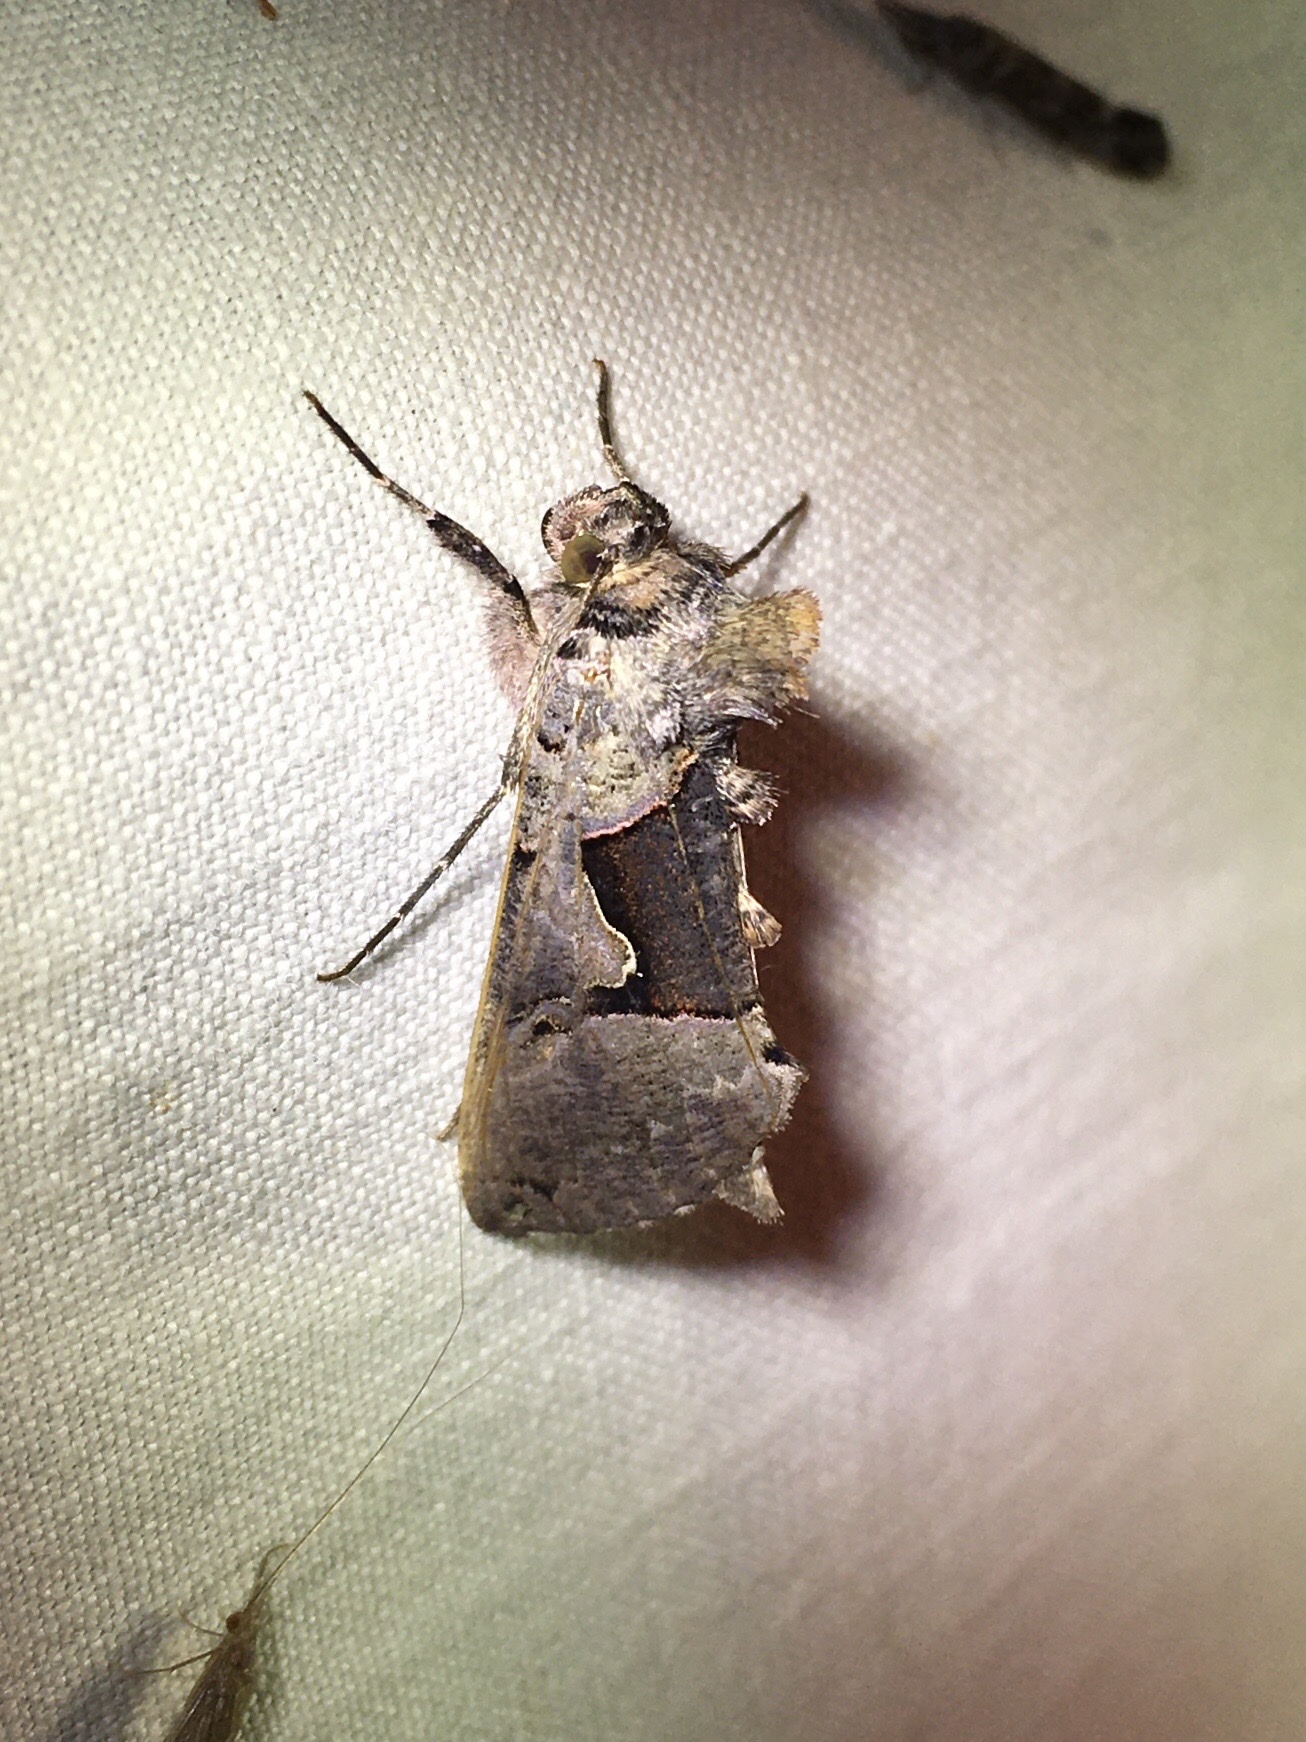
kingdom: Animalia
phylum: Arthropoda
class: Insecta
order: Lepidoptera
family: Noctuidae
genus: Autographa
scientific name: Autographa ampla
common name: Large looper moth
